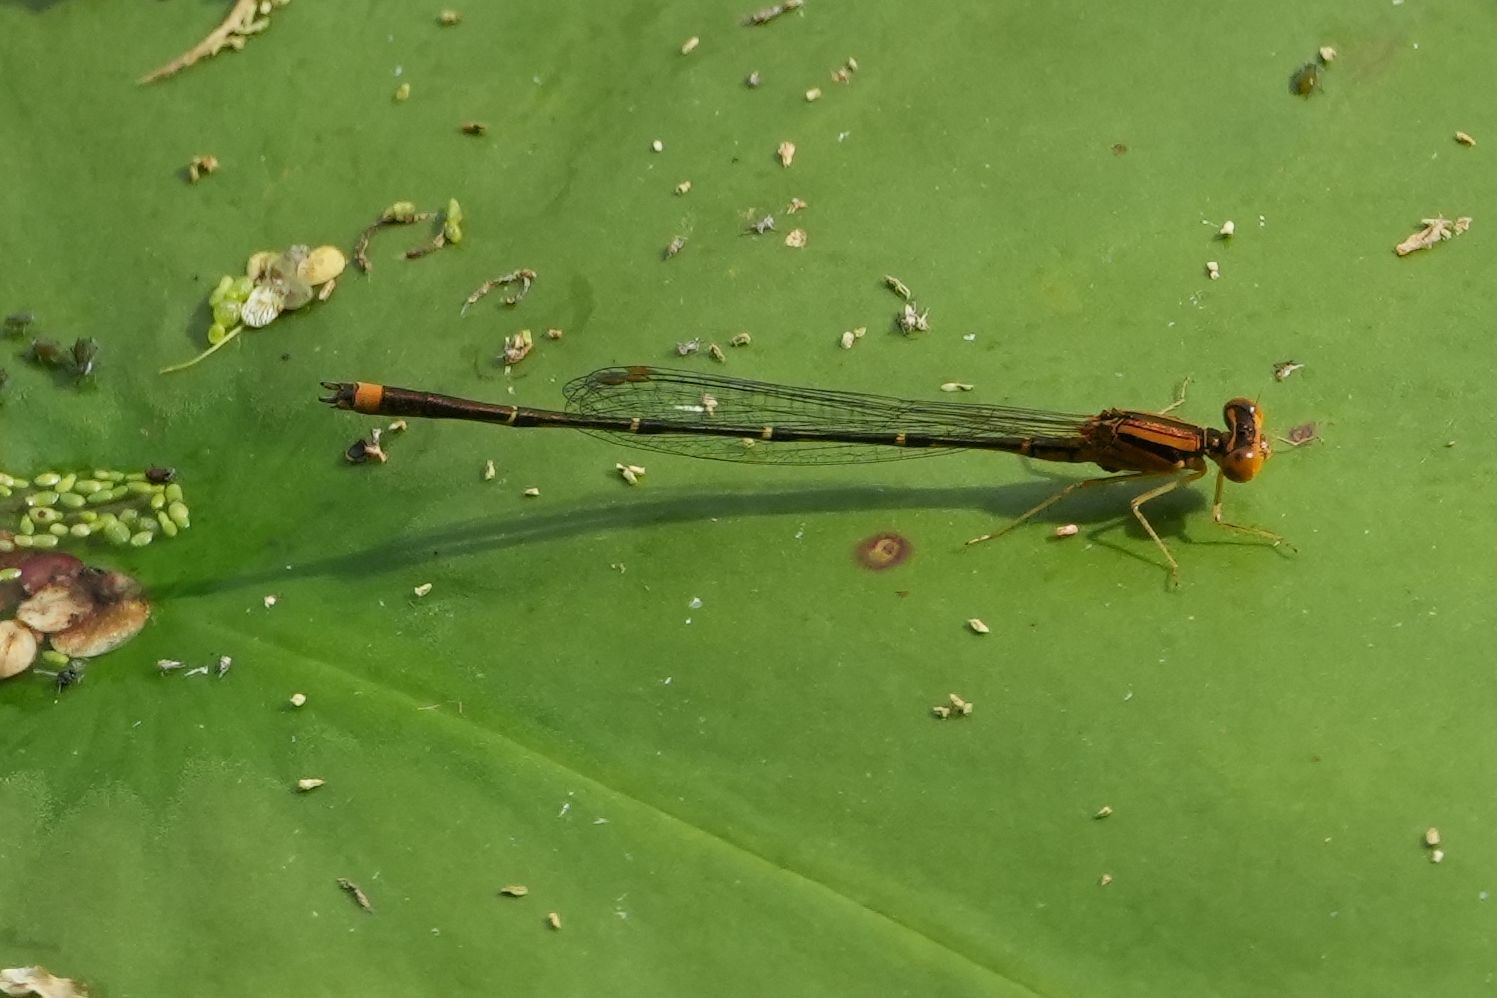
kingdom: Animalia
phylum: Arthropoda
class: Insecta
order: Odonata
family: Coenagrionidae
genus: Enallagma
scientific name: Enallagma signatum
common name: Orange bluet
